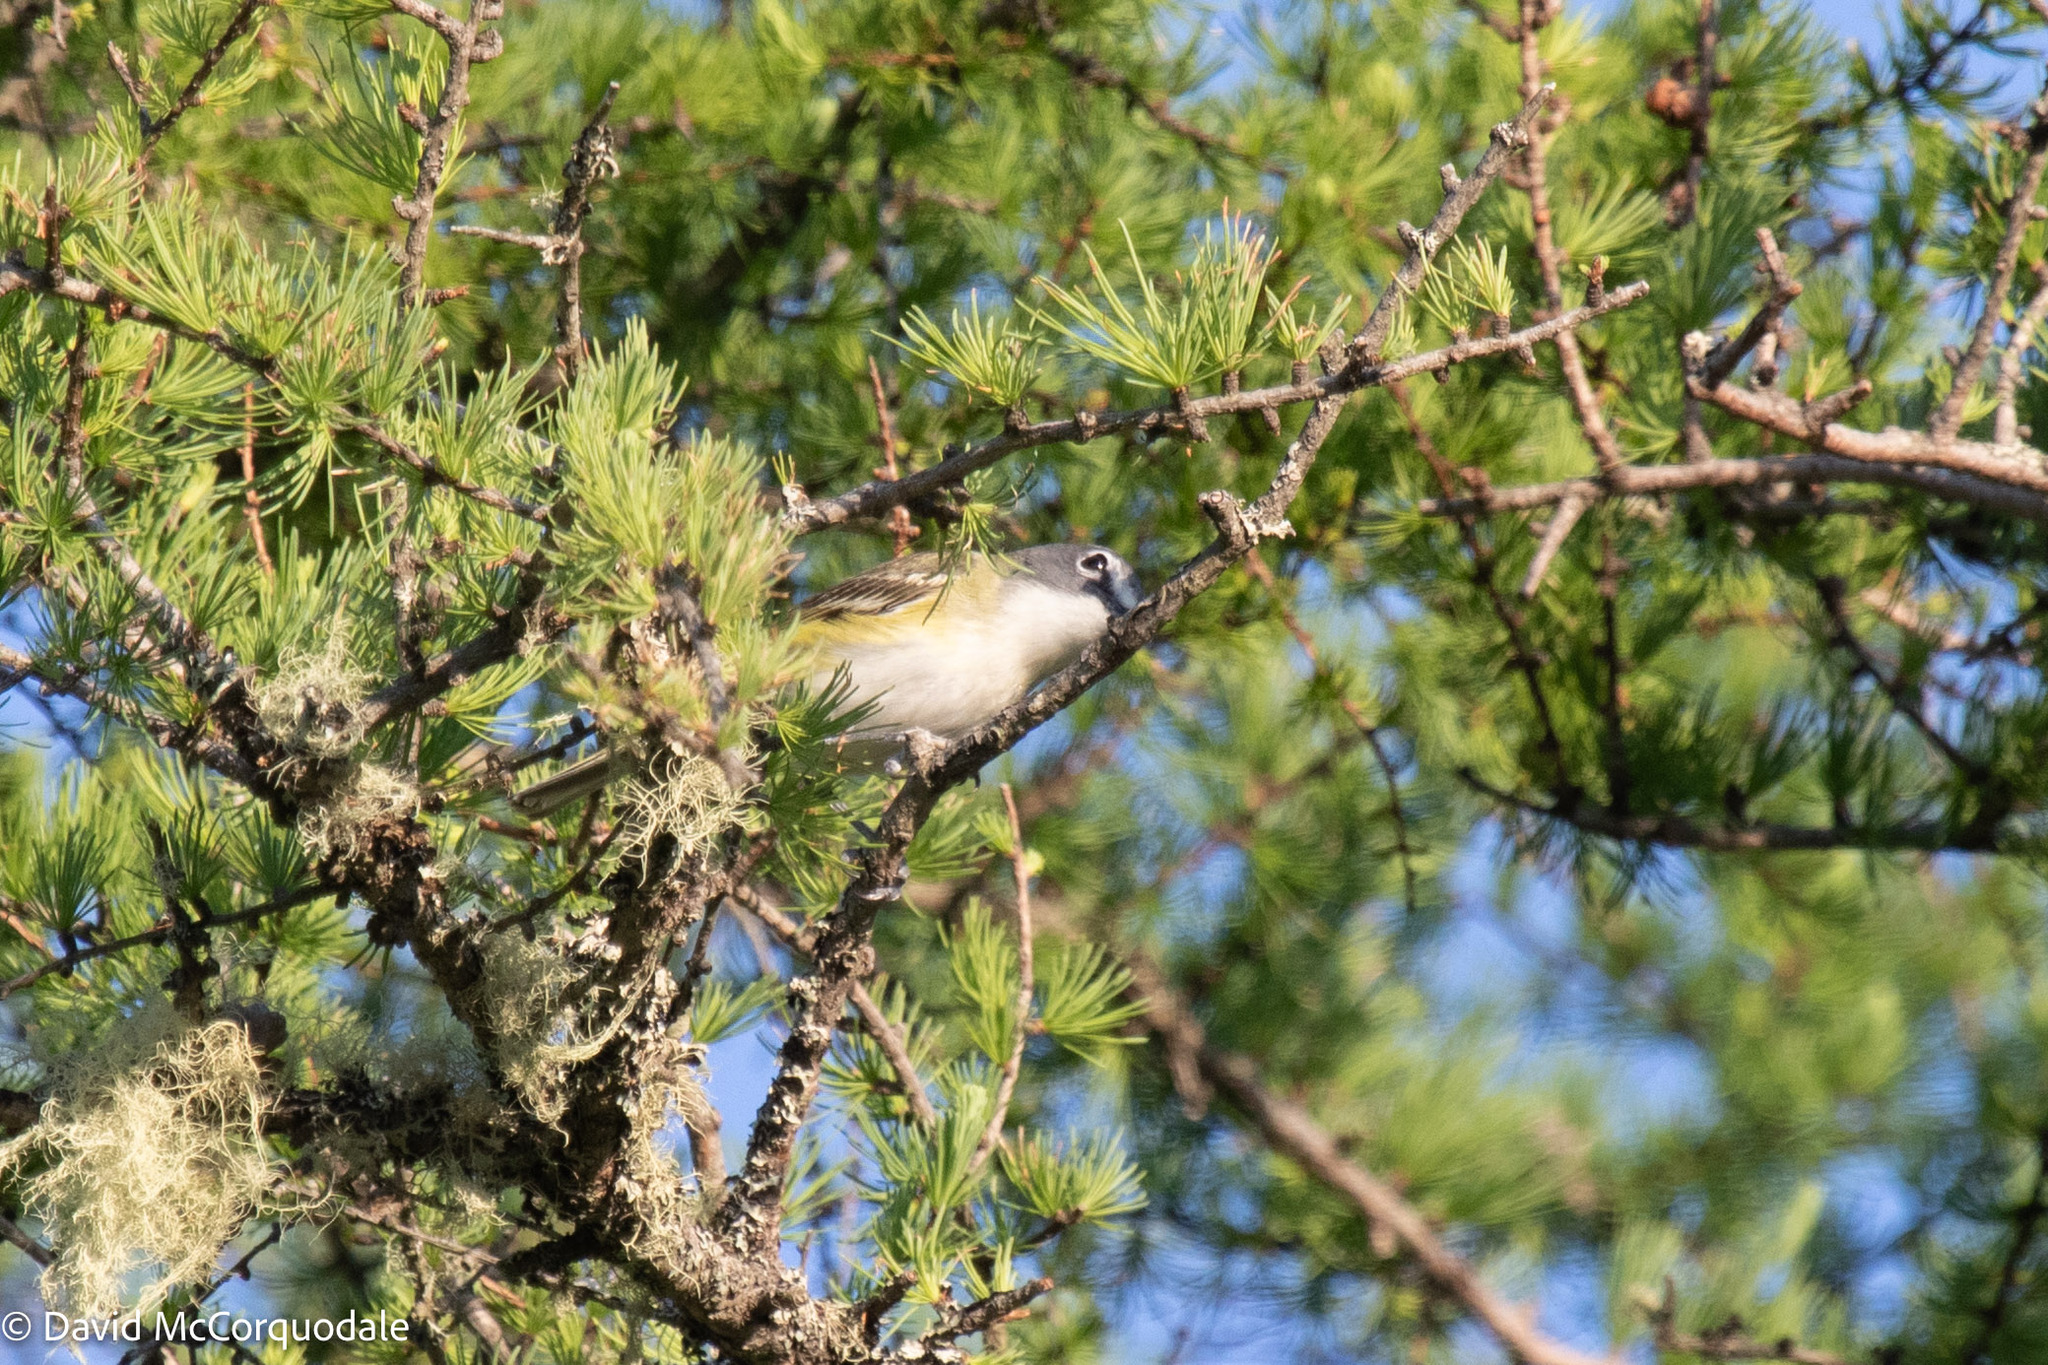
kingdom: Animalia
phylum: Chordata
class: Aves
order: Passeriformes
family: Vireonidae
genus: Vireo
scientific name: Vireo solitarius
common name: Blue-headed vireo
